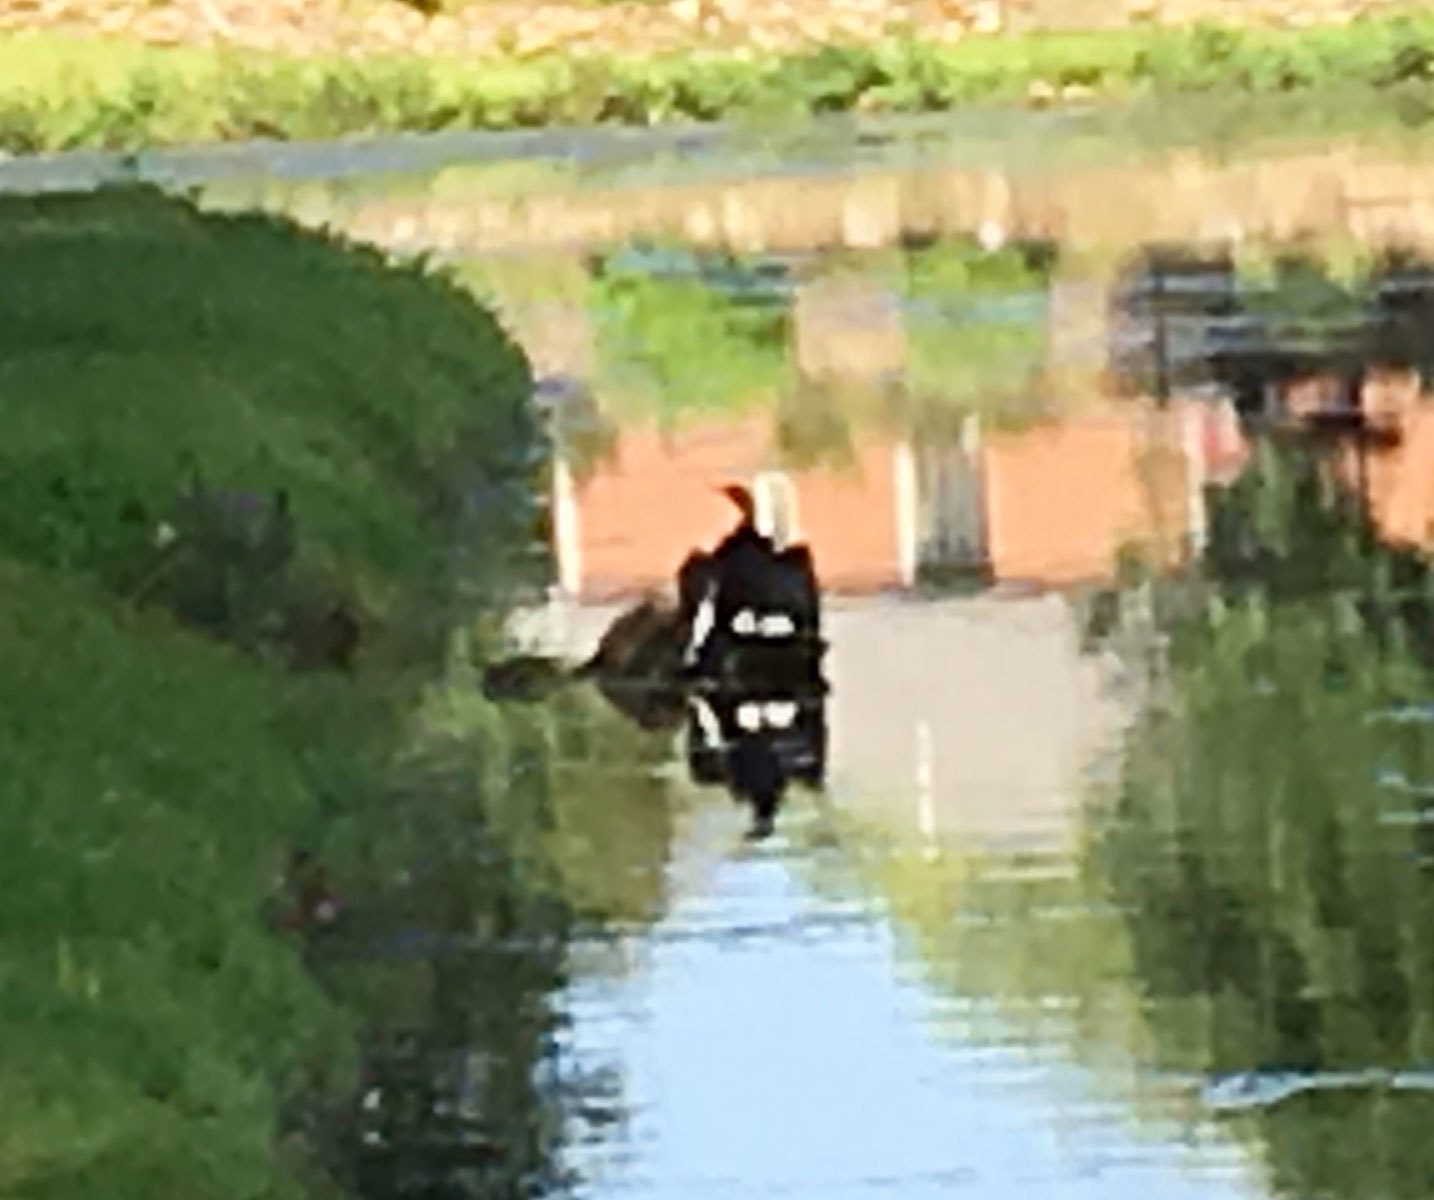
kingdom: Animalia
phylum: Chordata
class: Aves
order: Suliformes
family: Phalacrocoracidae
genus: Phalacrocorax
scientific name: Phalacrocorax auritus
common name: Double-crested cormorant
